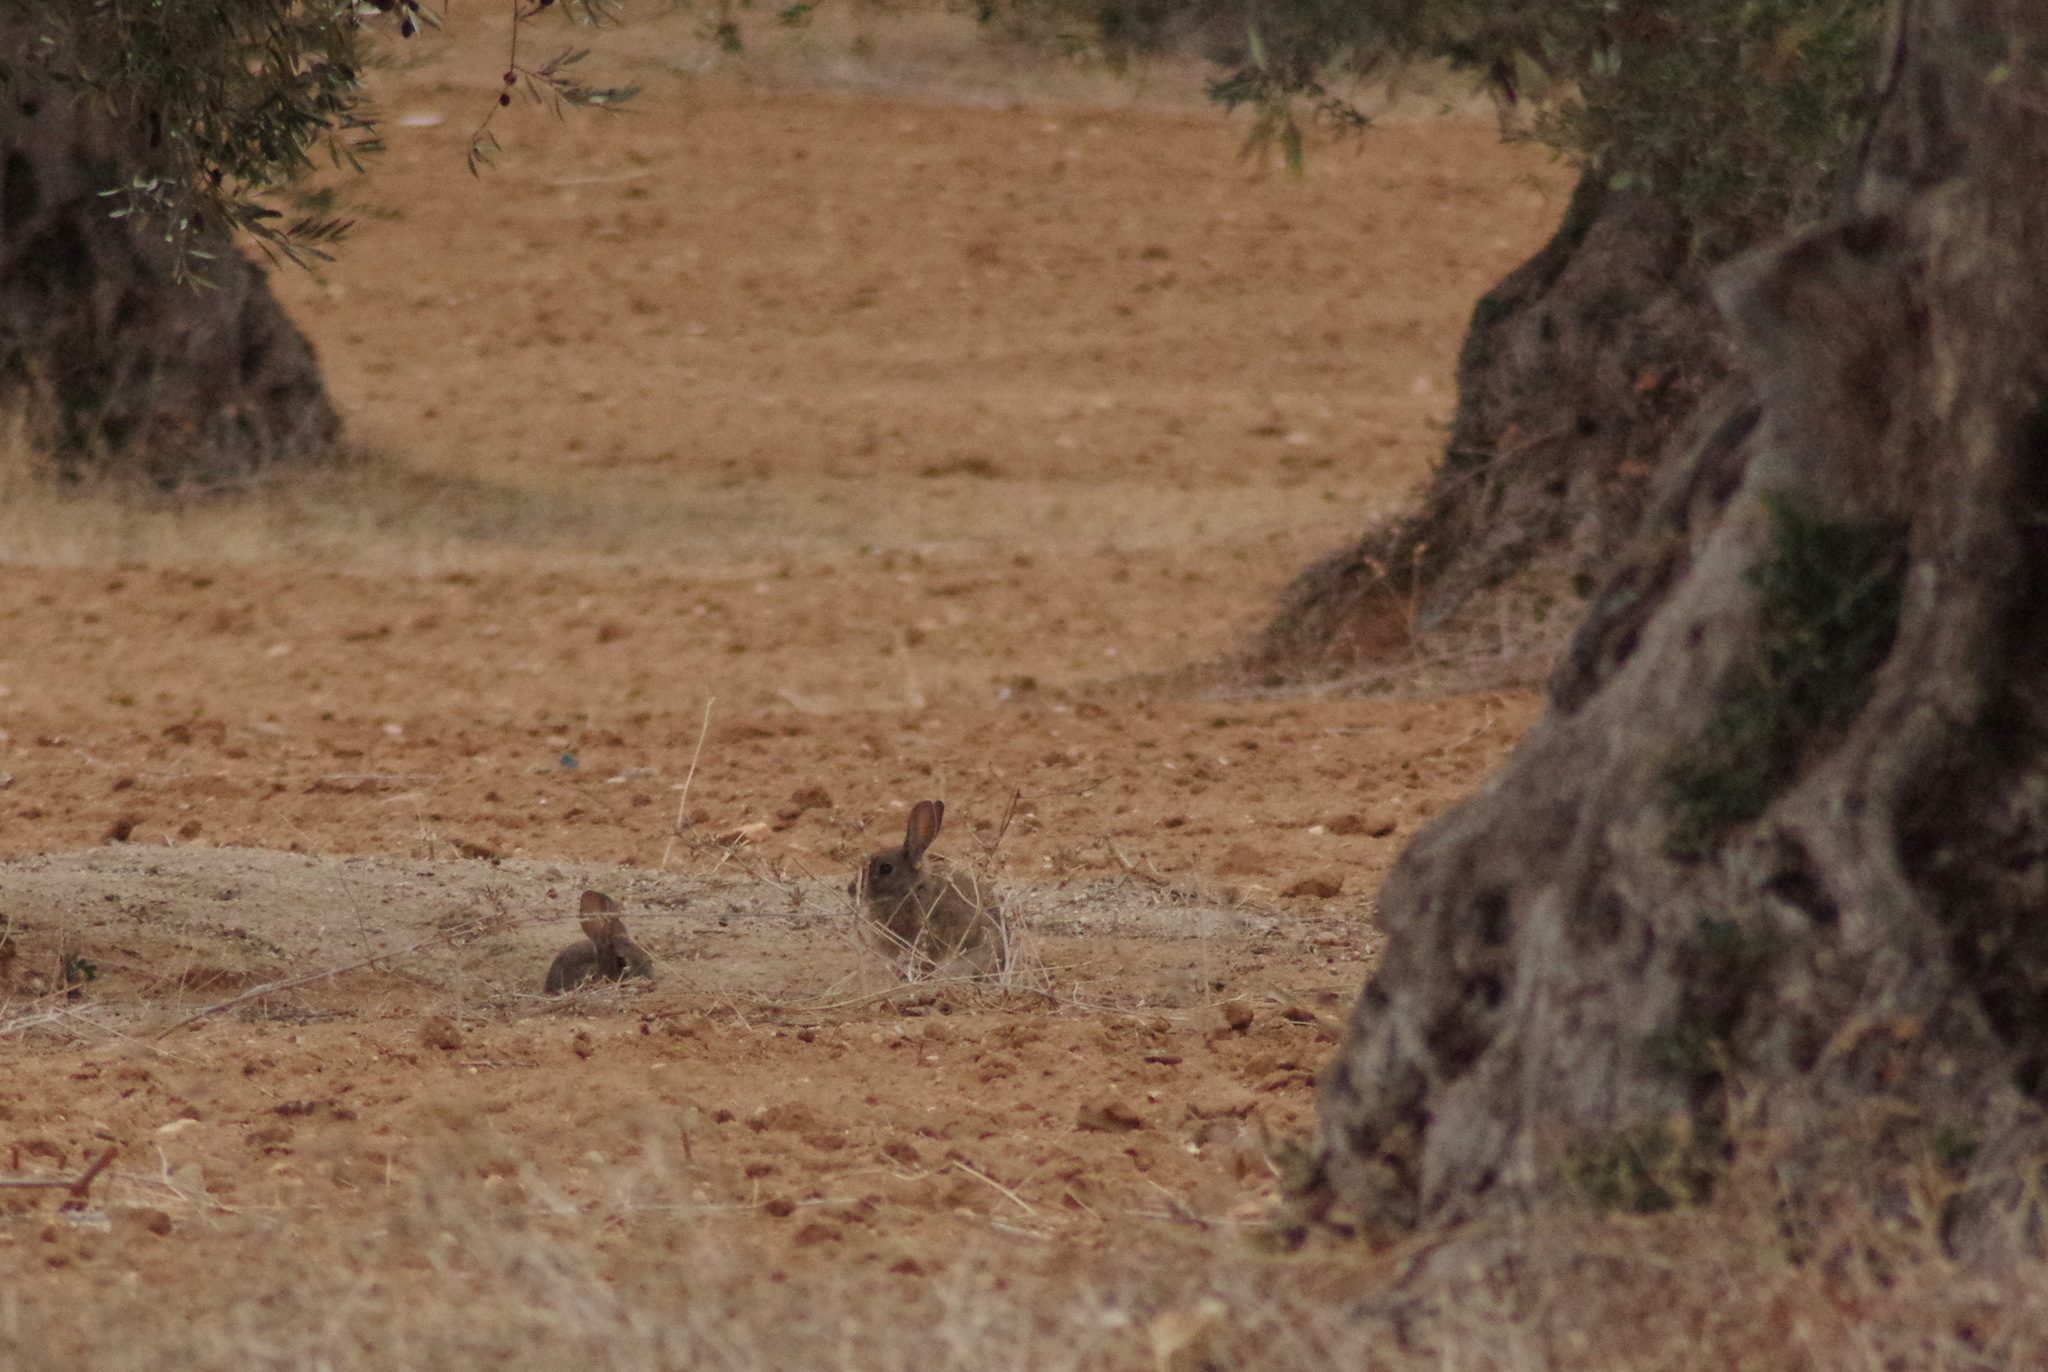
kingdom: Animalia
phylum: Chordata
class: Mammalia
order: Lagomorpha
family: Leporidae
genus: Oryctolagus
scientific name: Oryctolagus cuniculus
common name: European rabbit
